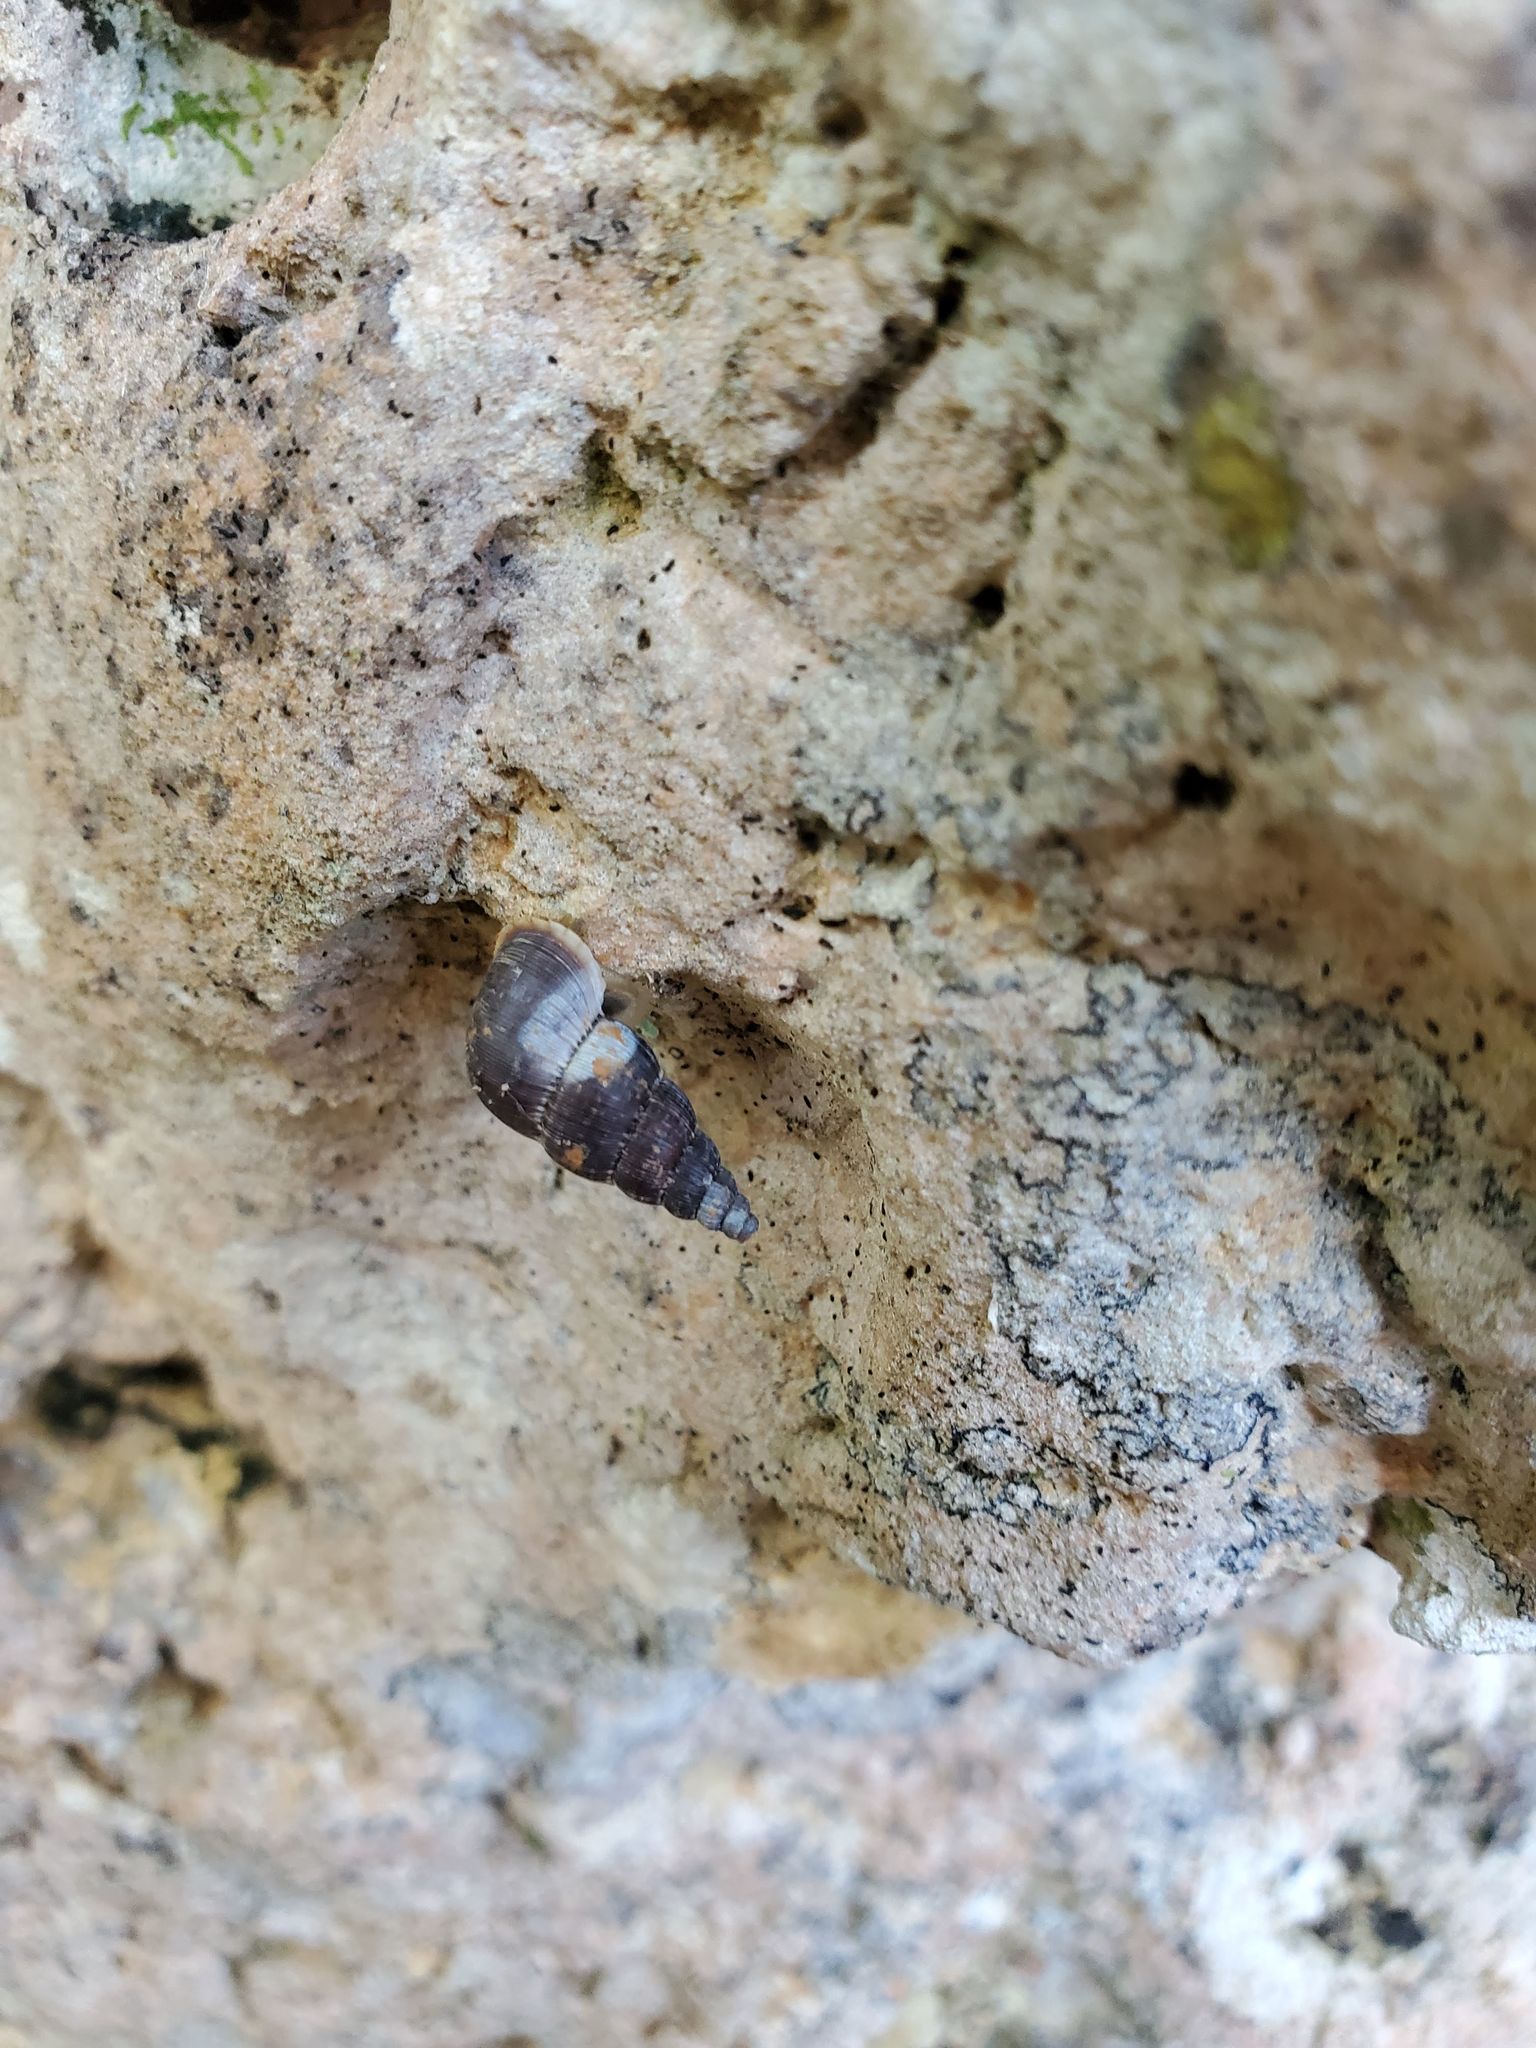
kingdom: Animalia
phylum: Mollusca
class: Gastropoda
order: Littorinimorpha
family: Annulariidae
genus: Parachondria
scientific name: Parachondria riisei
